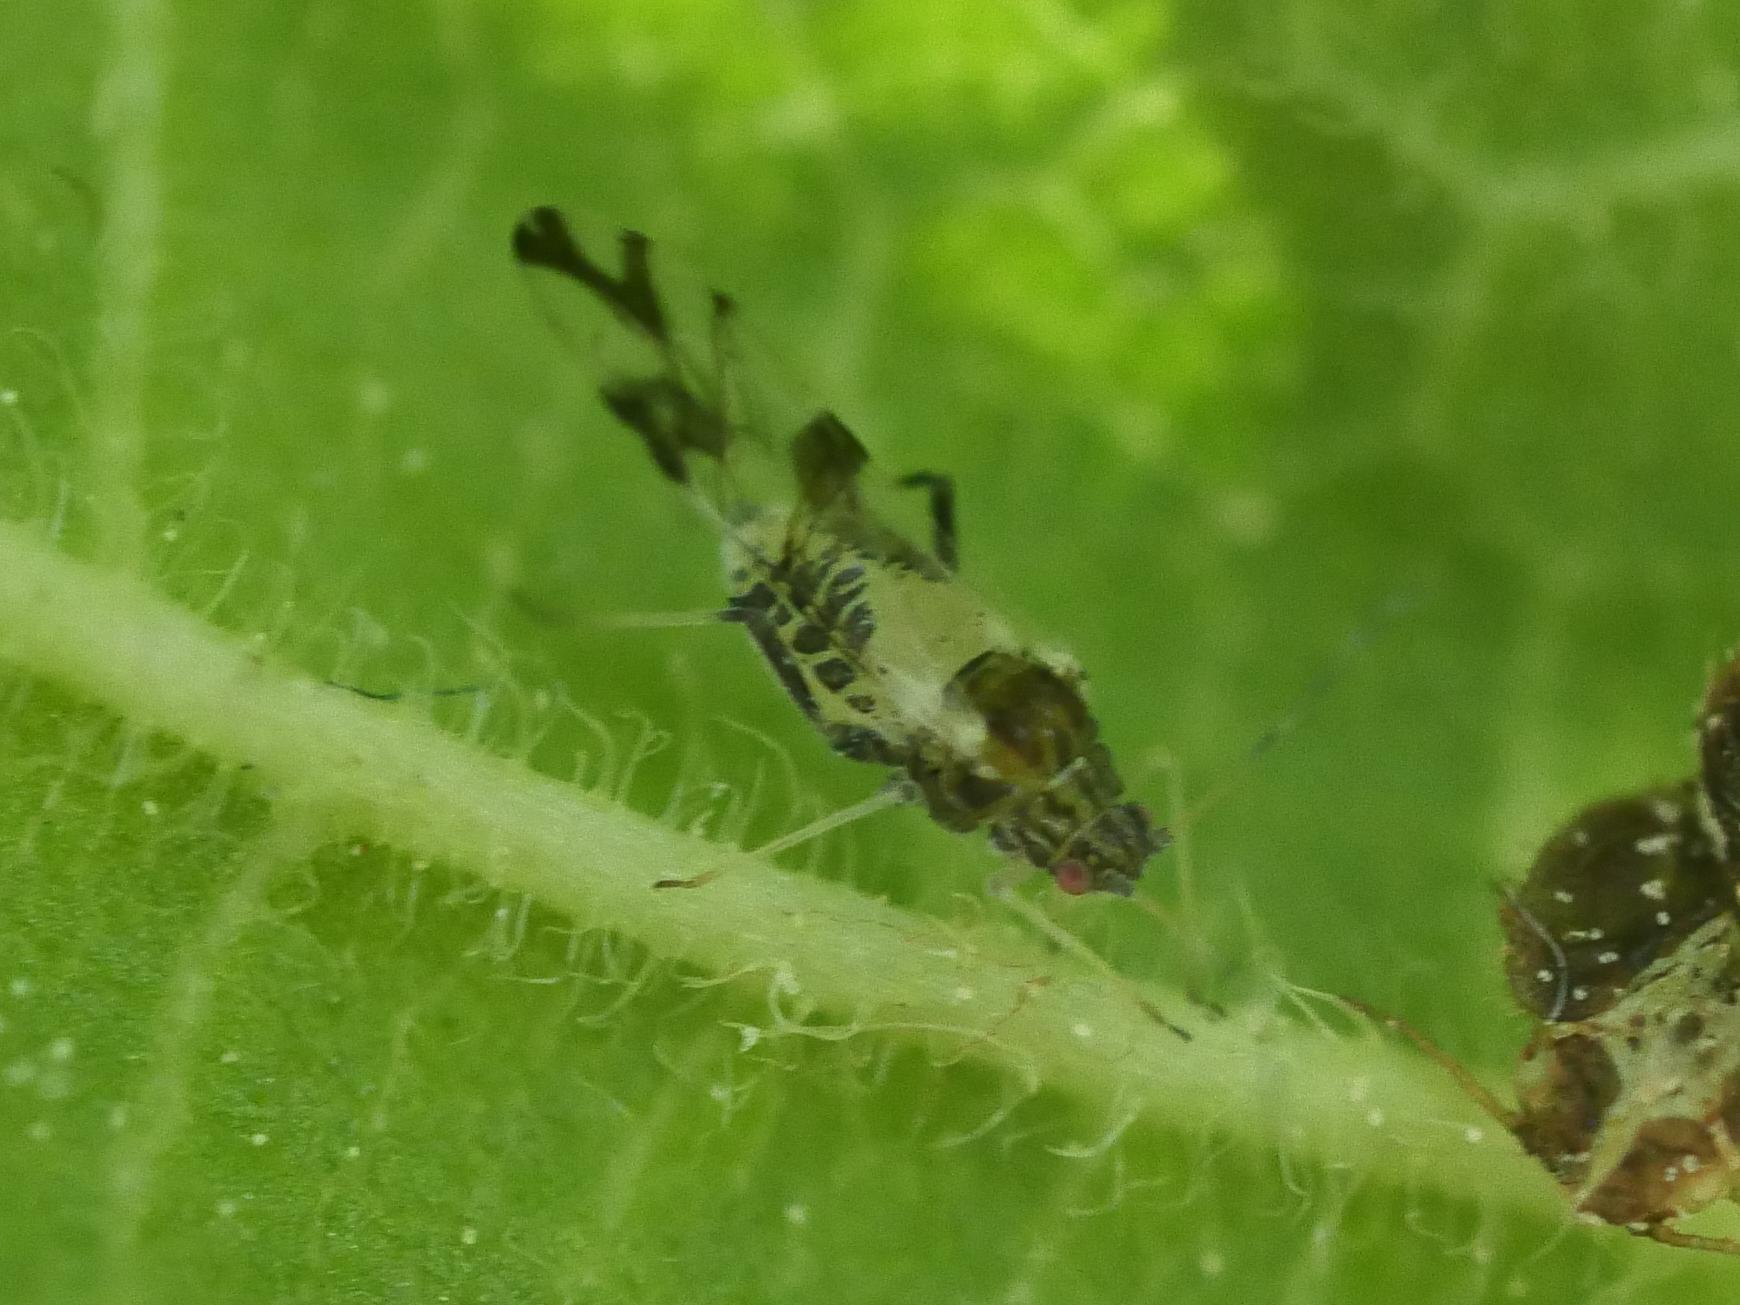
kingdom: Animalia
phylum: Arthropoda
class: Insecta
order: Hemiptera
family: Aphididae
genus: Tinocallis
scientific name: Tinocallis platani
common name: Elm aphid
